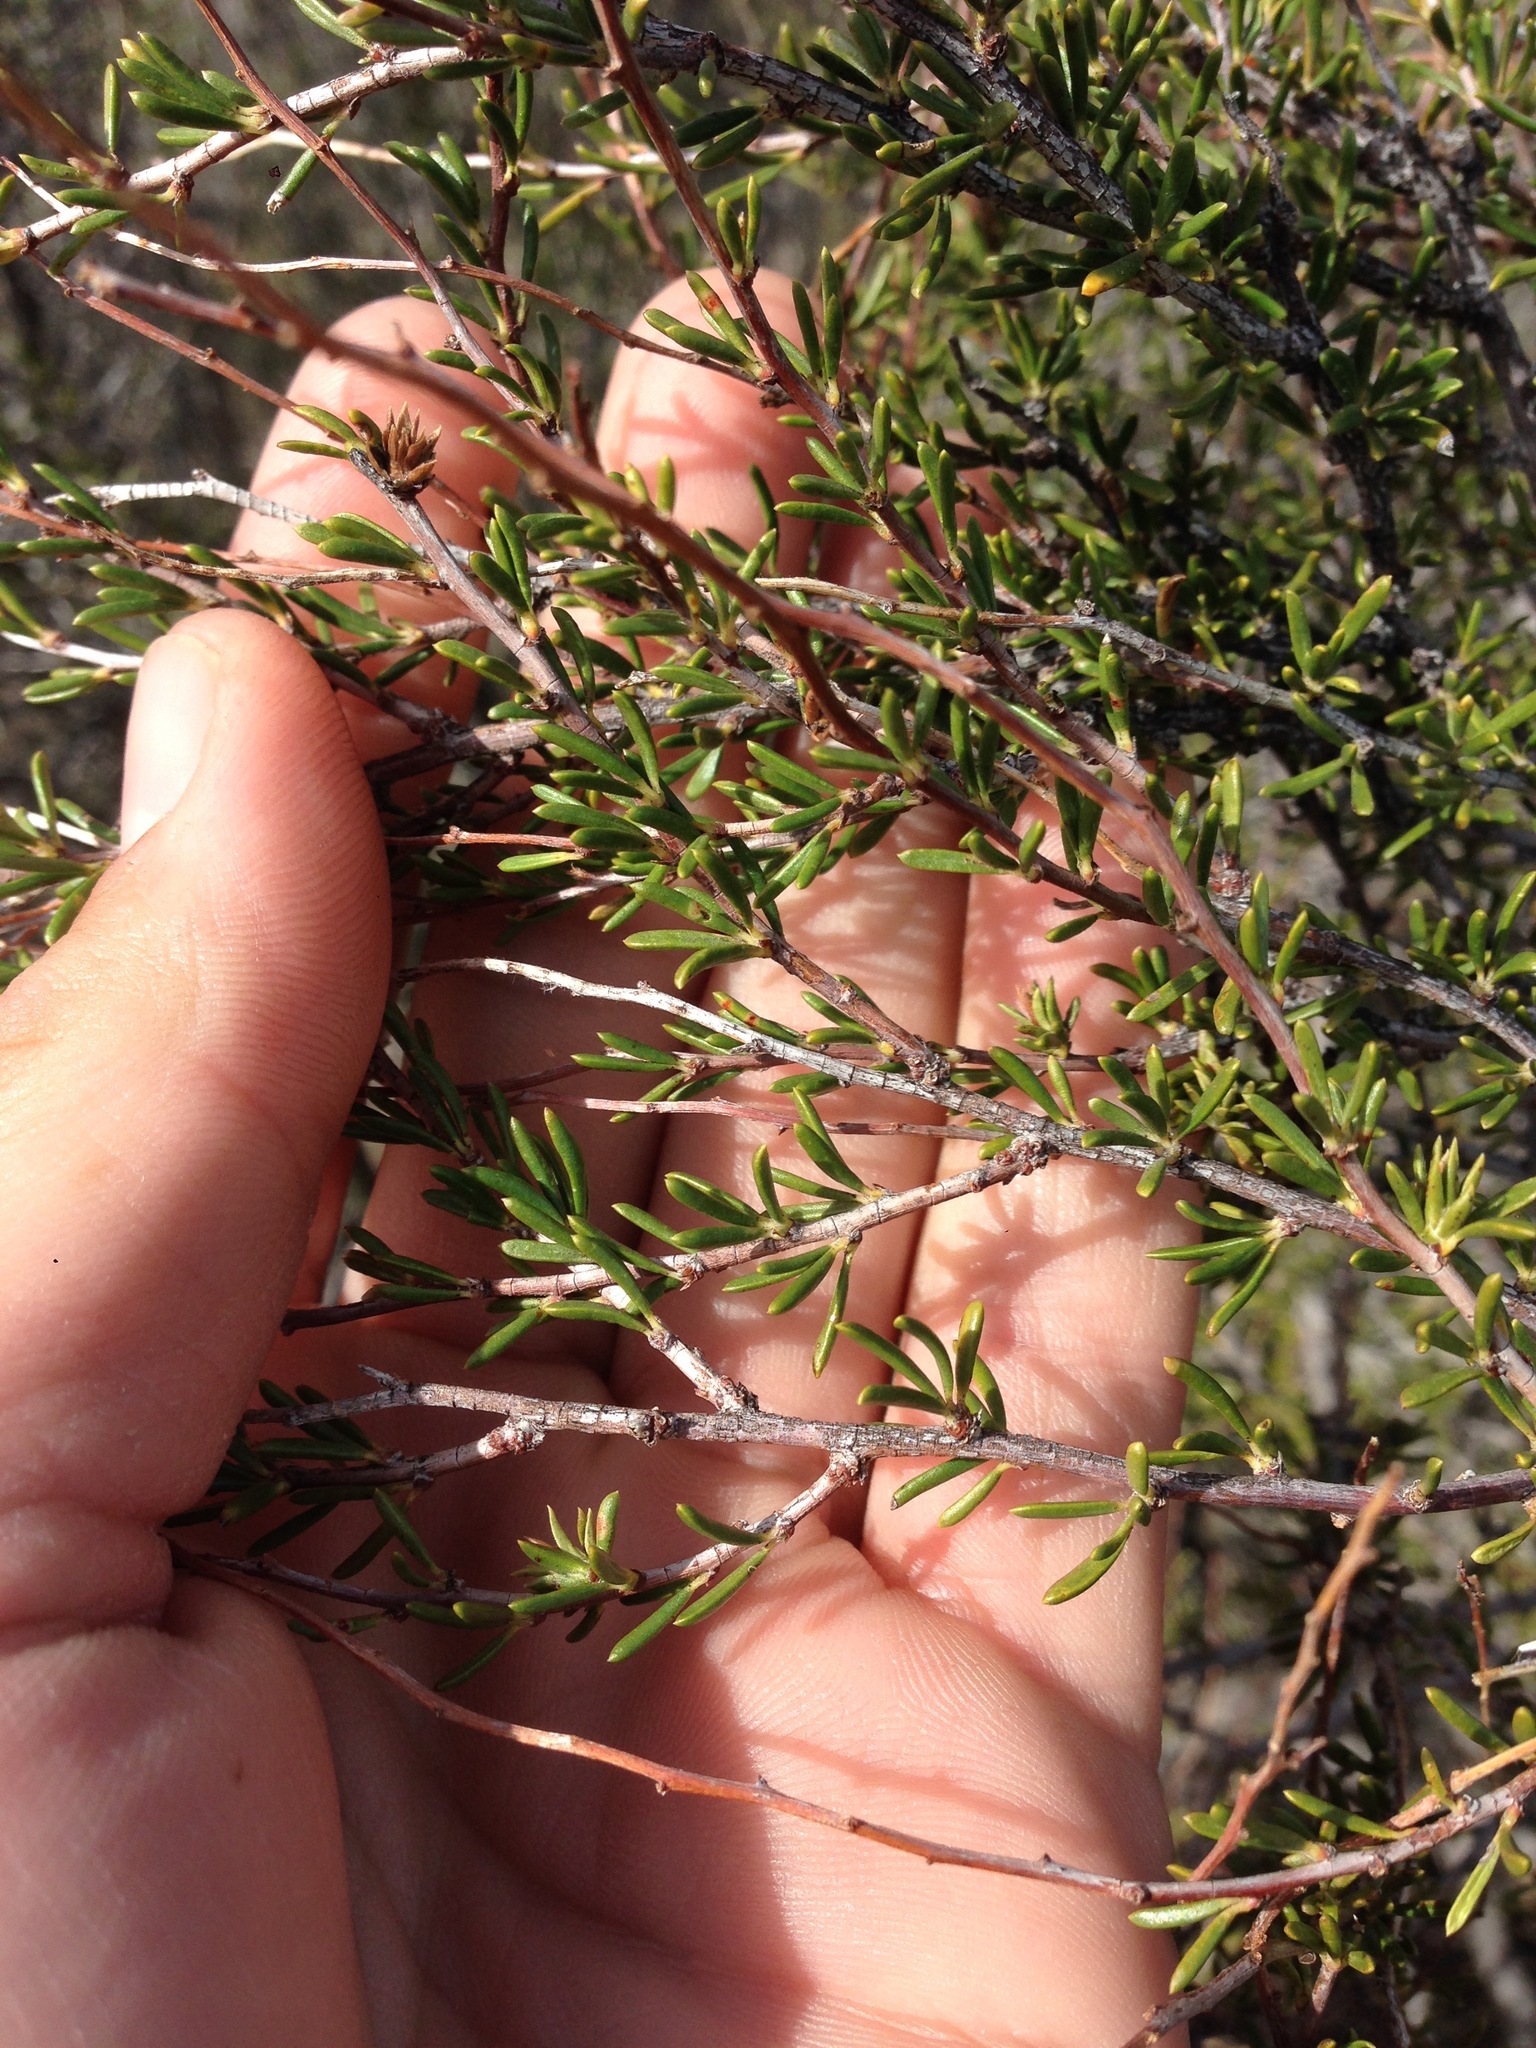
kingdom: Plantae
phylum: Tracheophyta
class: Magnoliopsida
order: Rosales
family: Rosaceae
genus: Adenostoma
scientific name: Adenostoma fasciculatum
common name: Chamise
